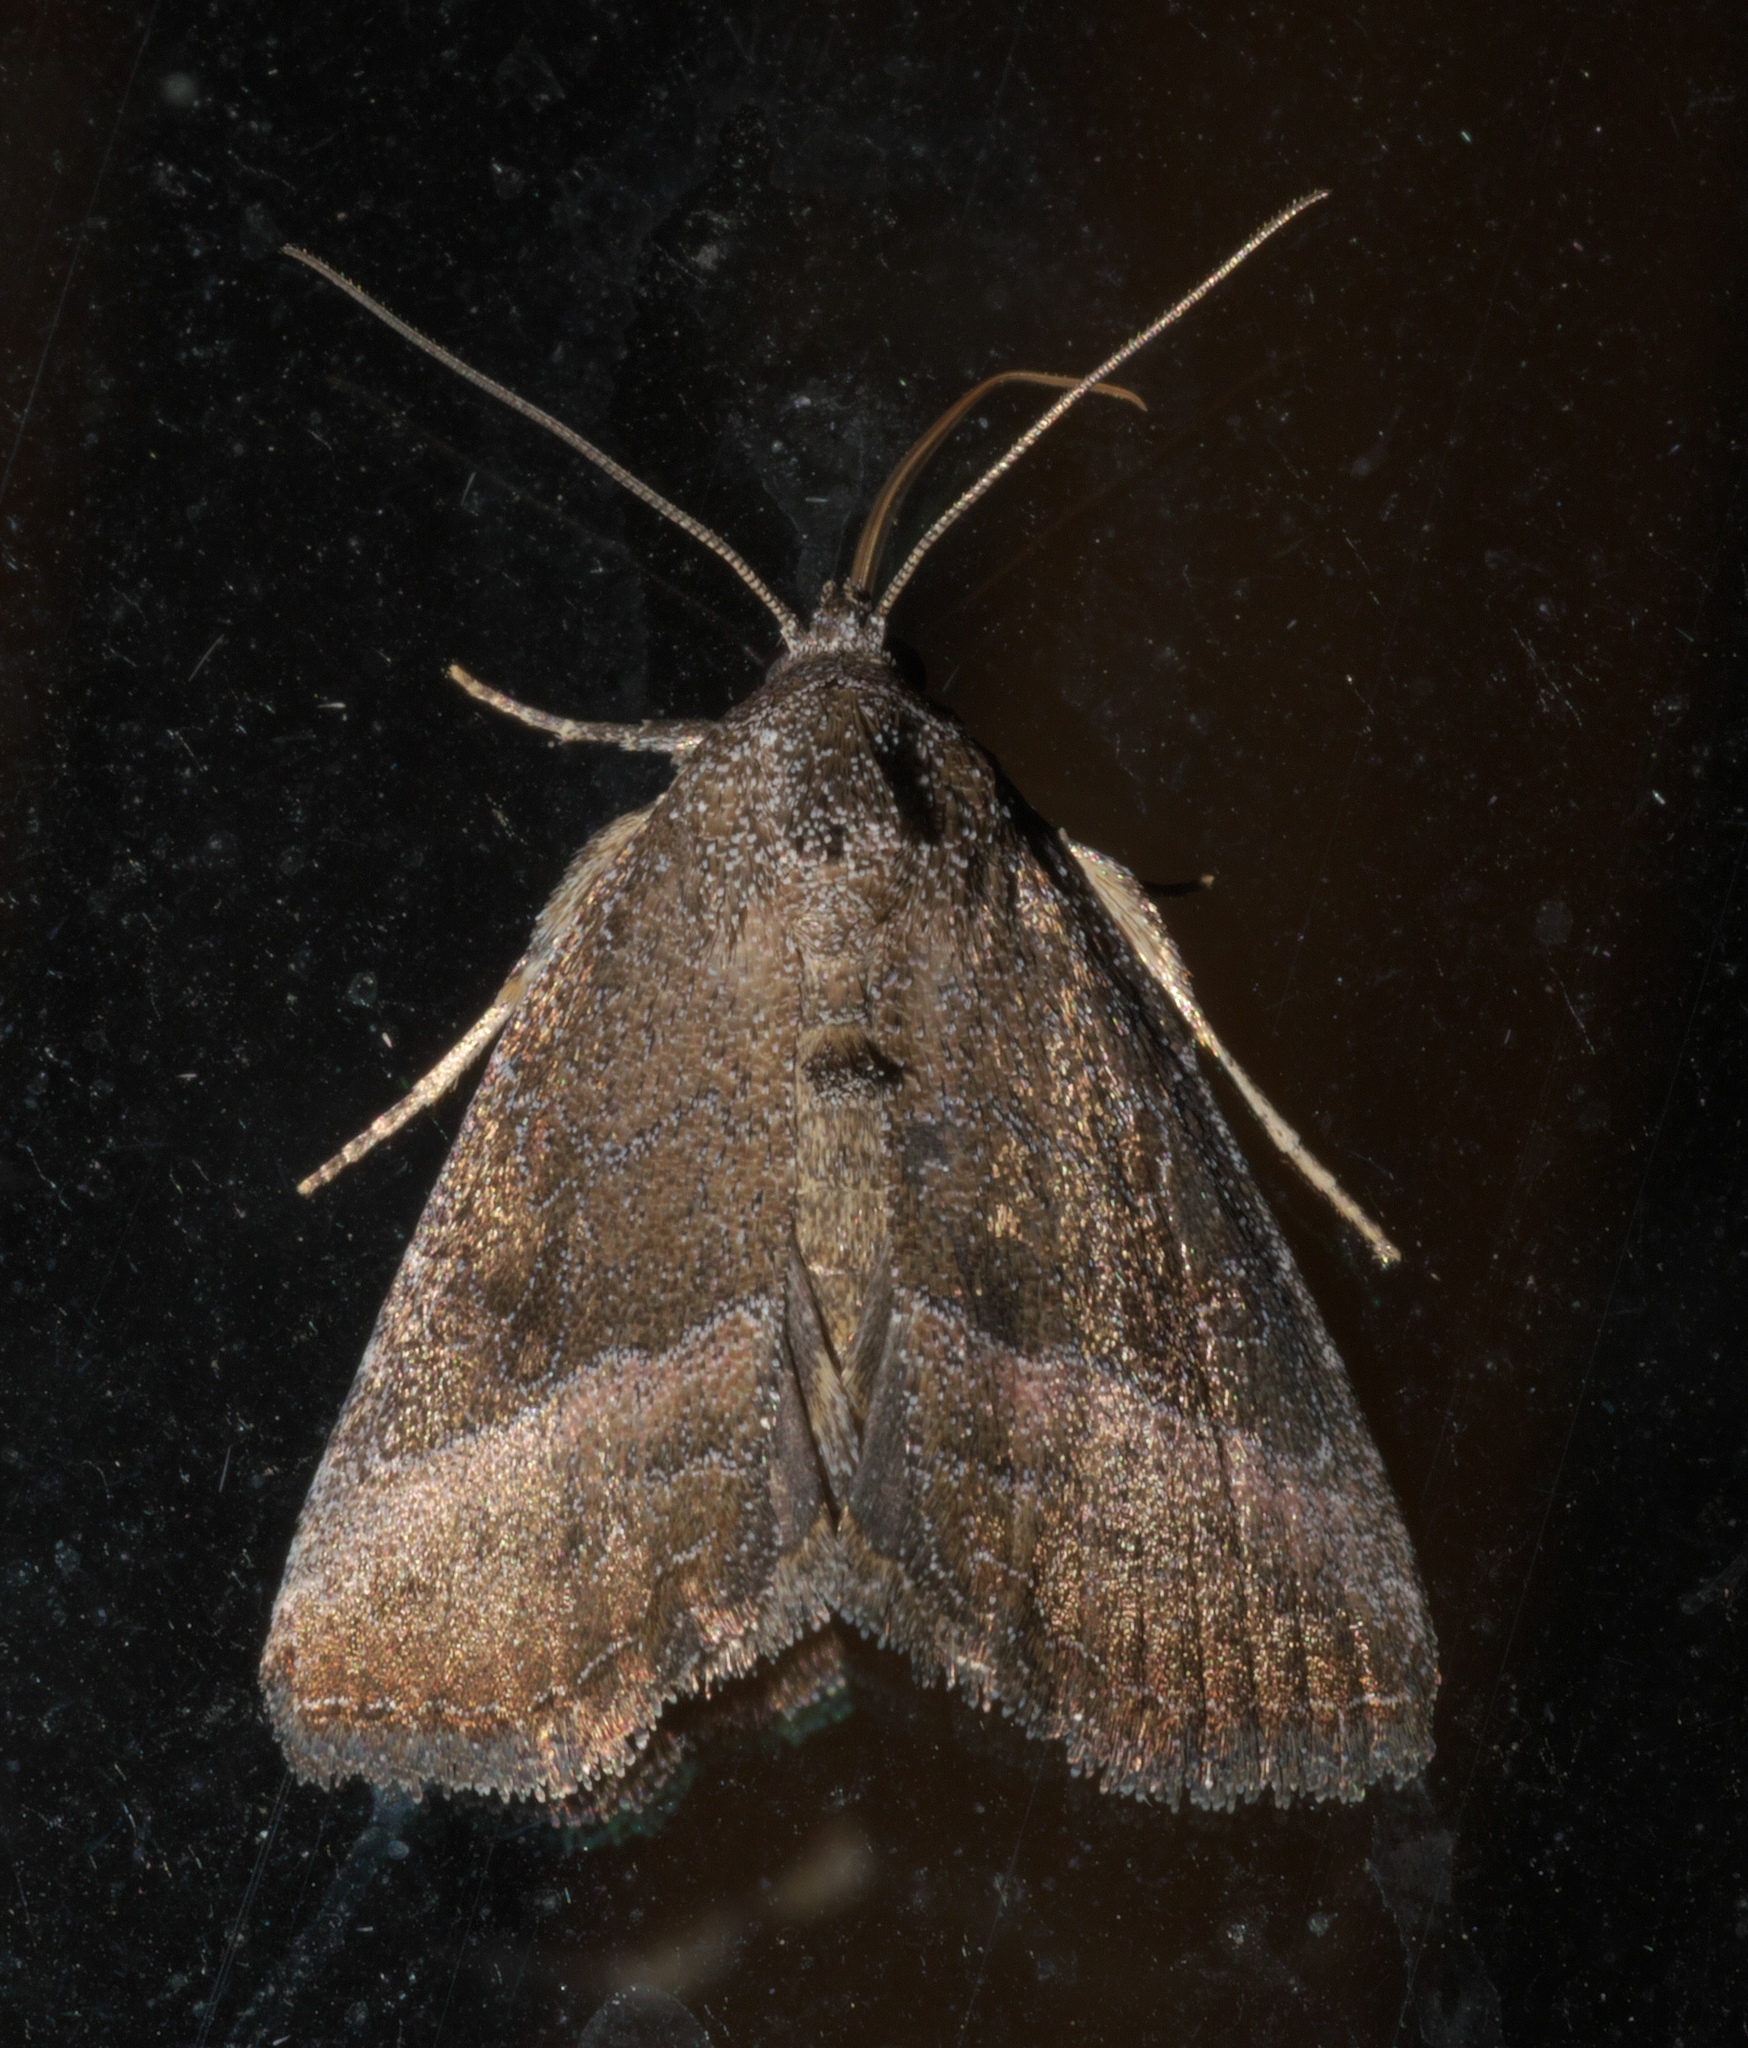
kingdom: Animalia
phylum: Arthropoda
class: Insecta
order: Lepidoptera
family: Noctuidae
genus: Ogdoconta
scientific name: Ogdoconta cinereola
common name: Common pinkband
